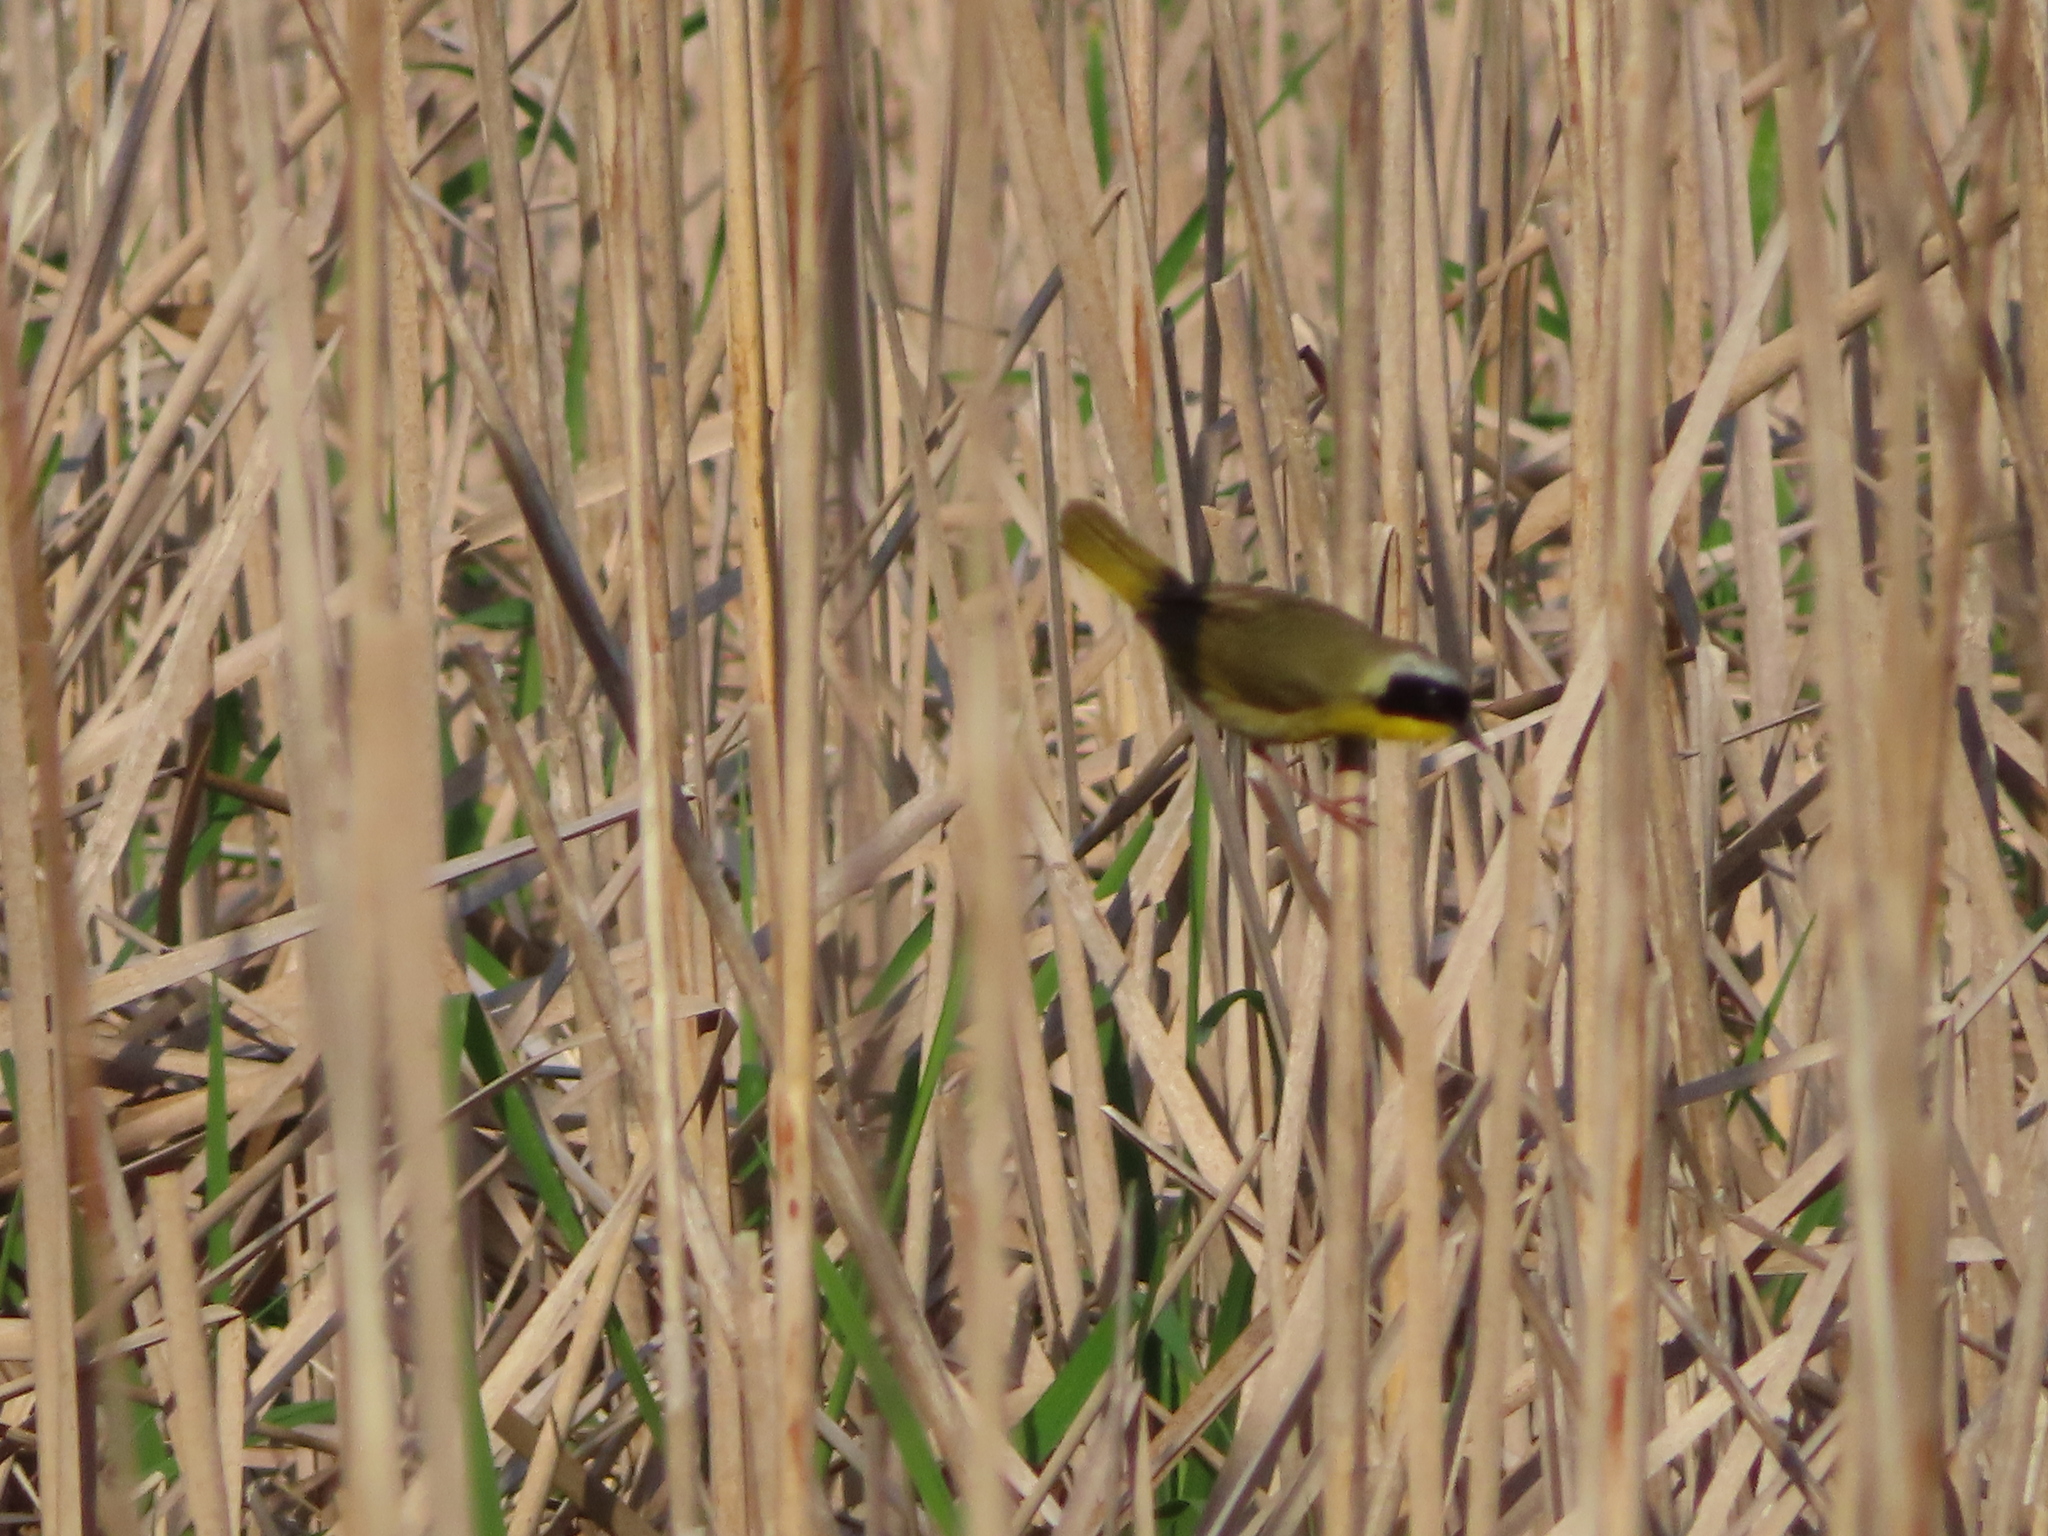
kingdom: Animalia
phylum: Chordata
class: Aves
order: Passeriformes
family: Parulidae
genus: Geothlypis
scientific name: Geothlypis trichas
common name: Common yellowthroat
